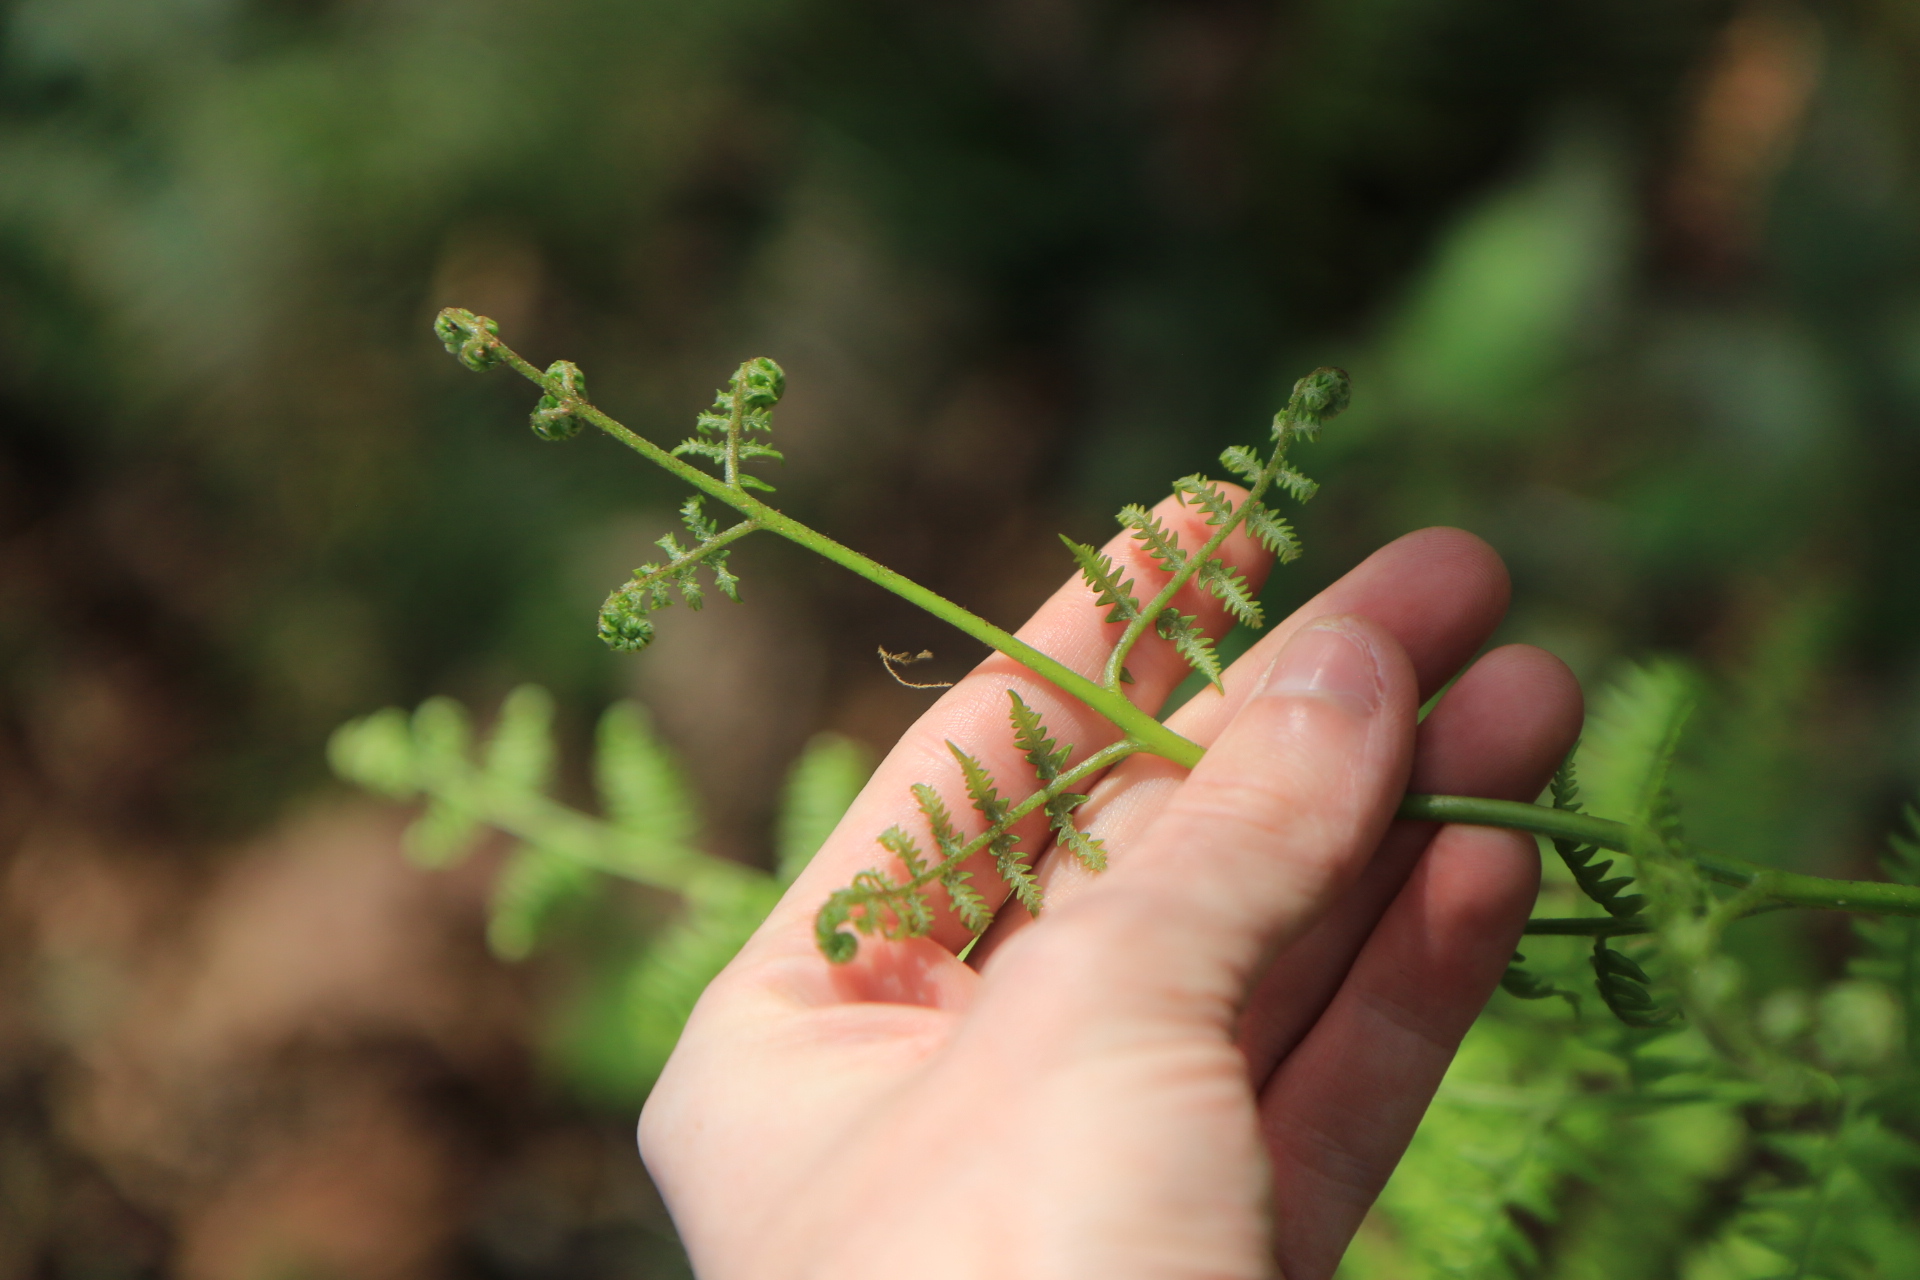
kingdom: Plantae
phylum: Tracheophyta
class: Polypodiopsida
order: Polypodiales
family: Dennstaedtiaceae
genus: Pteridium
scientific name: Pteridium aquilinum
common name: Bracken
